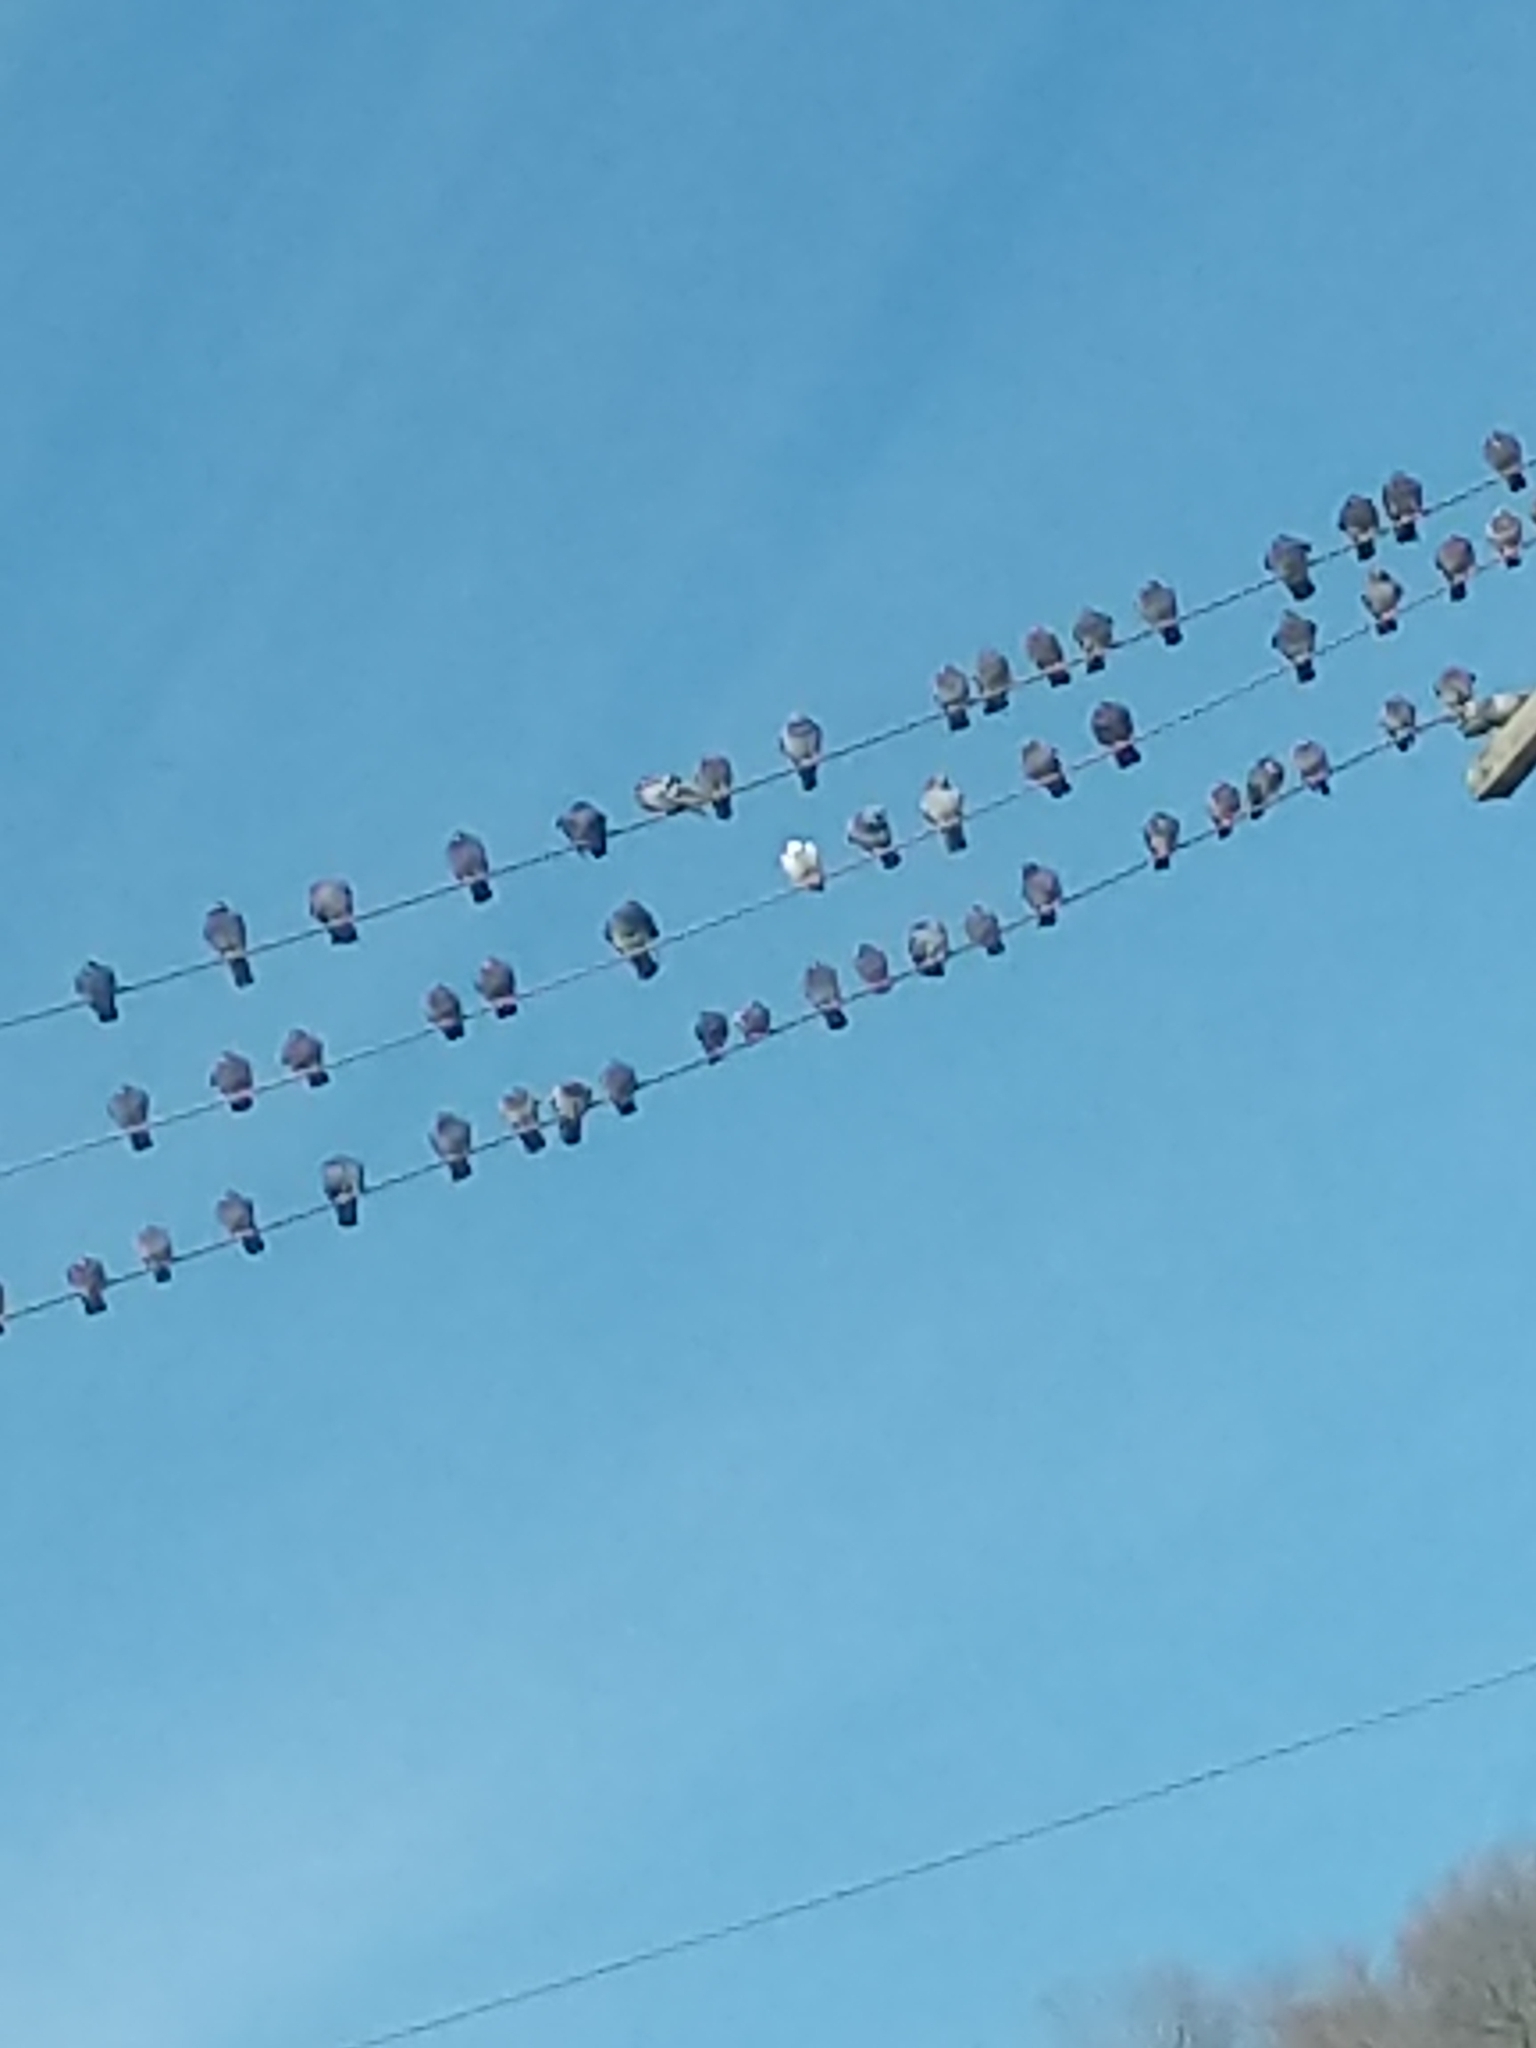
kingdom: Animalia
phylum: Chordata
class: Aves
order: Columbiformes
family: Columbidae
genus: Columba
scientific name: Columba livia
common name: Rock pigeon
